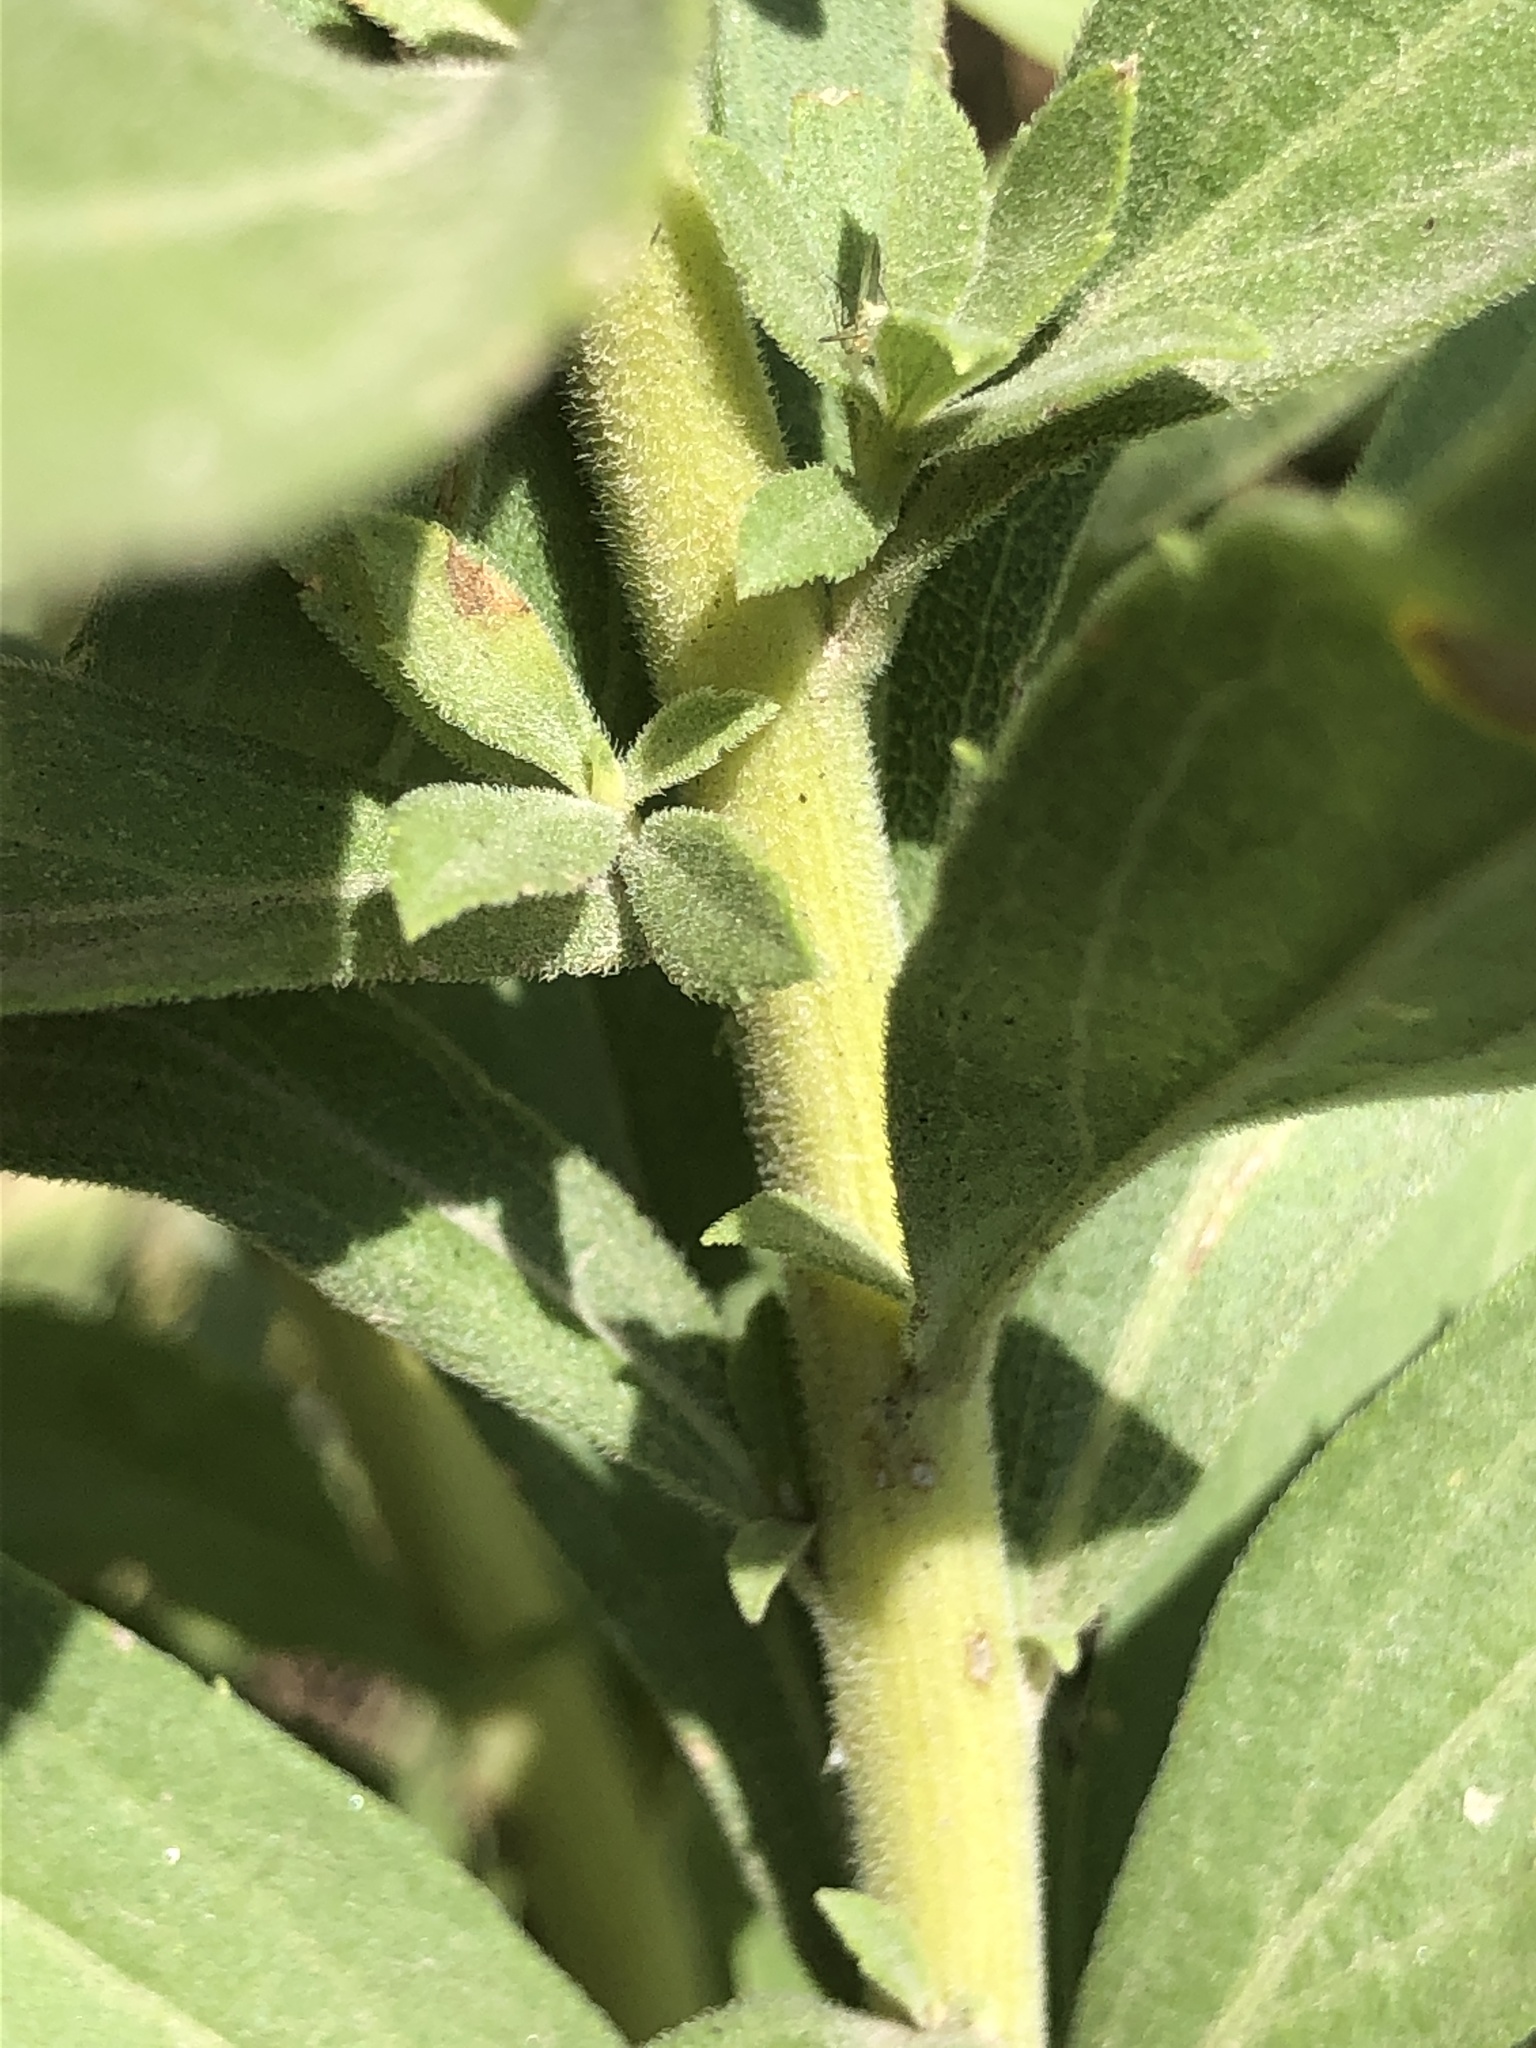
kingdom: Plantae
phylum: Tracheophyta
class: Magnoliopsida
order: Asterales
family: Asteraceae
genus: Solidago
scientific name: Solidago altissima
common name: Late goldenrod
